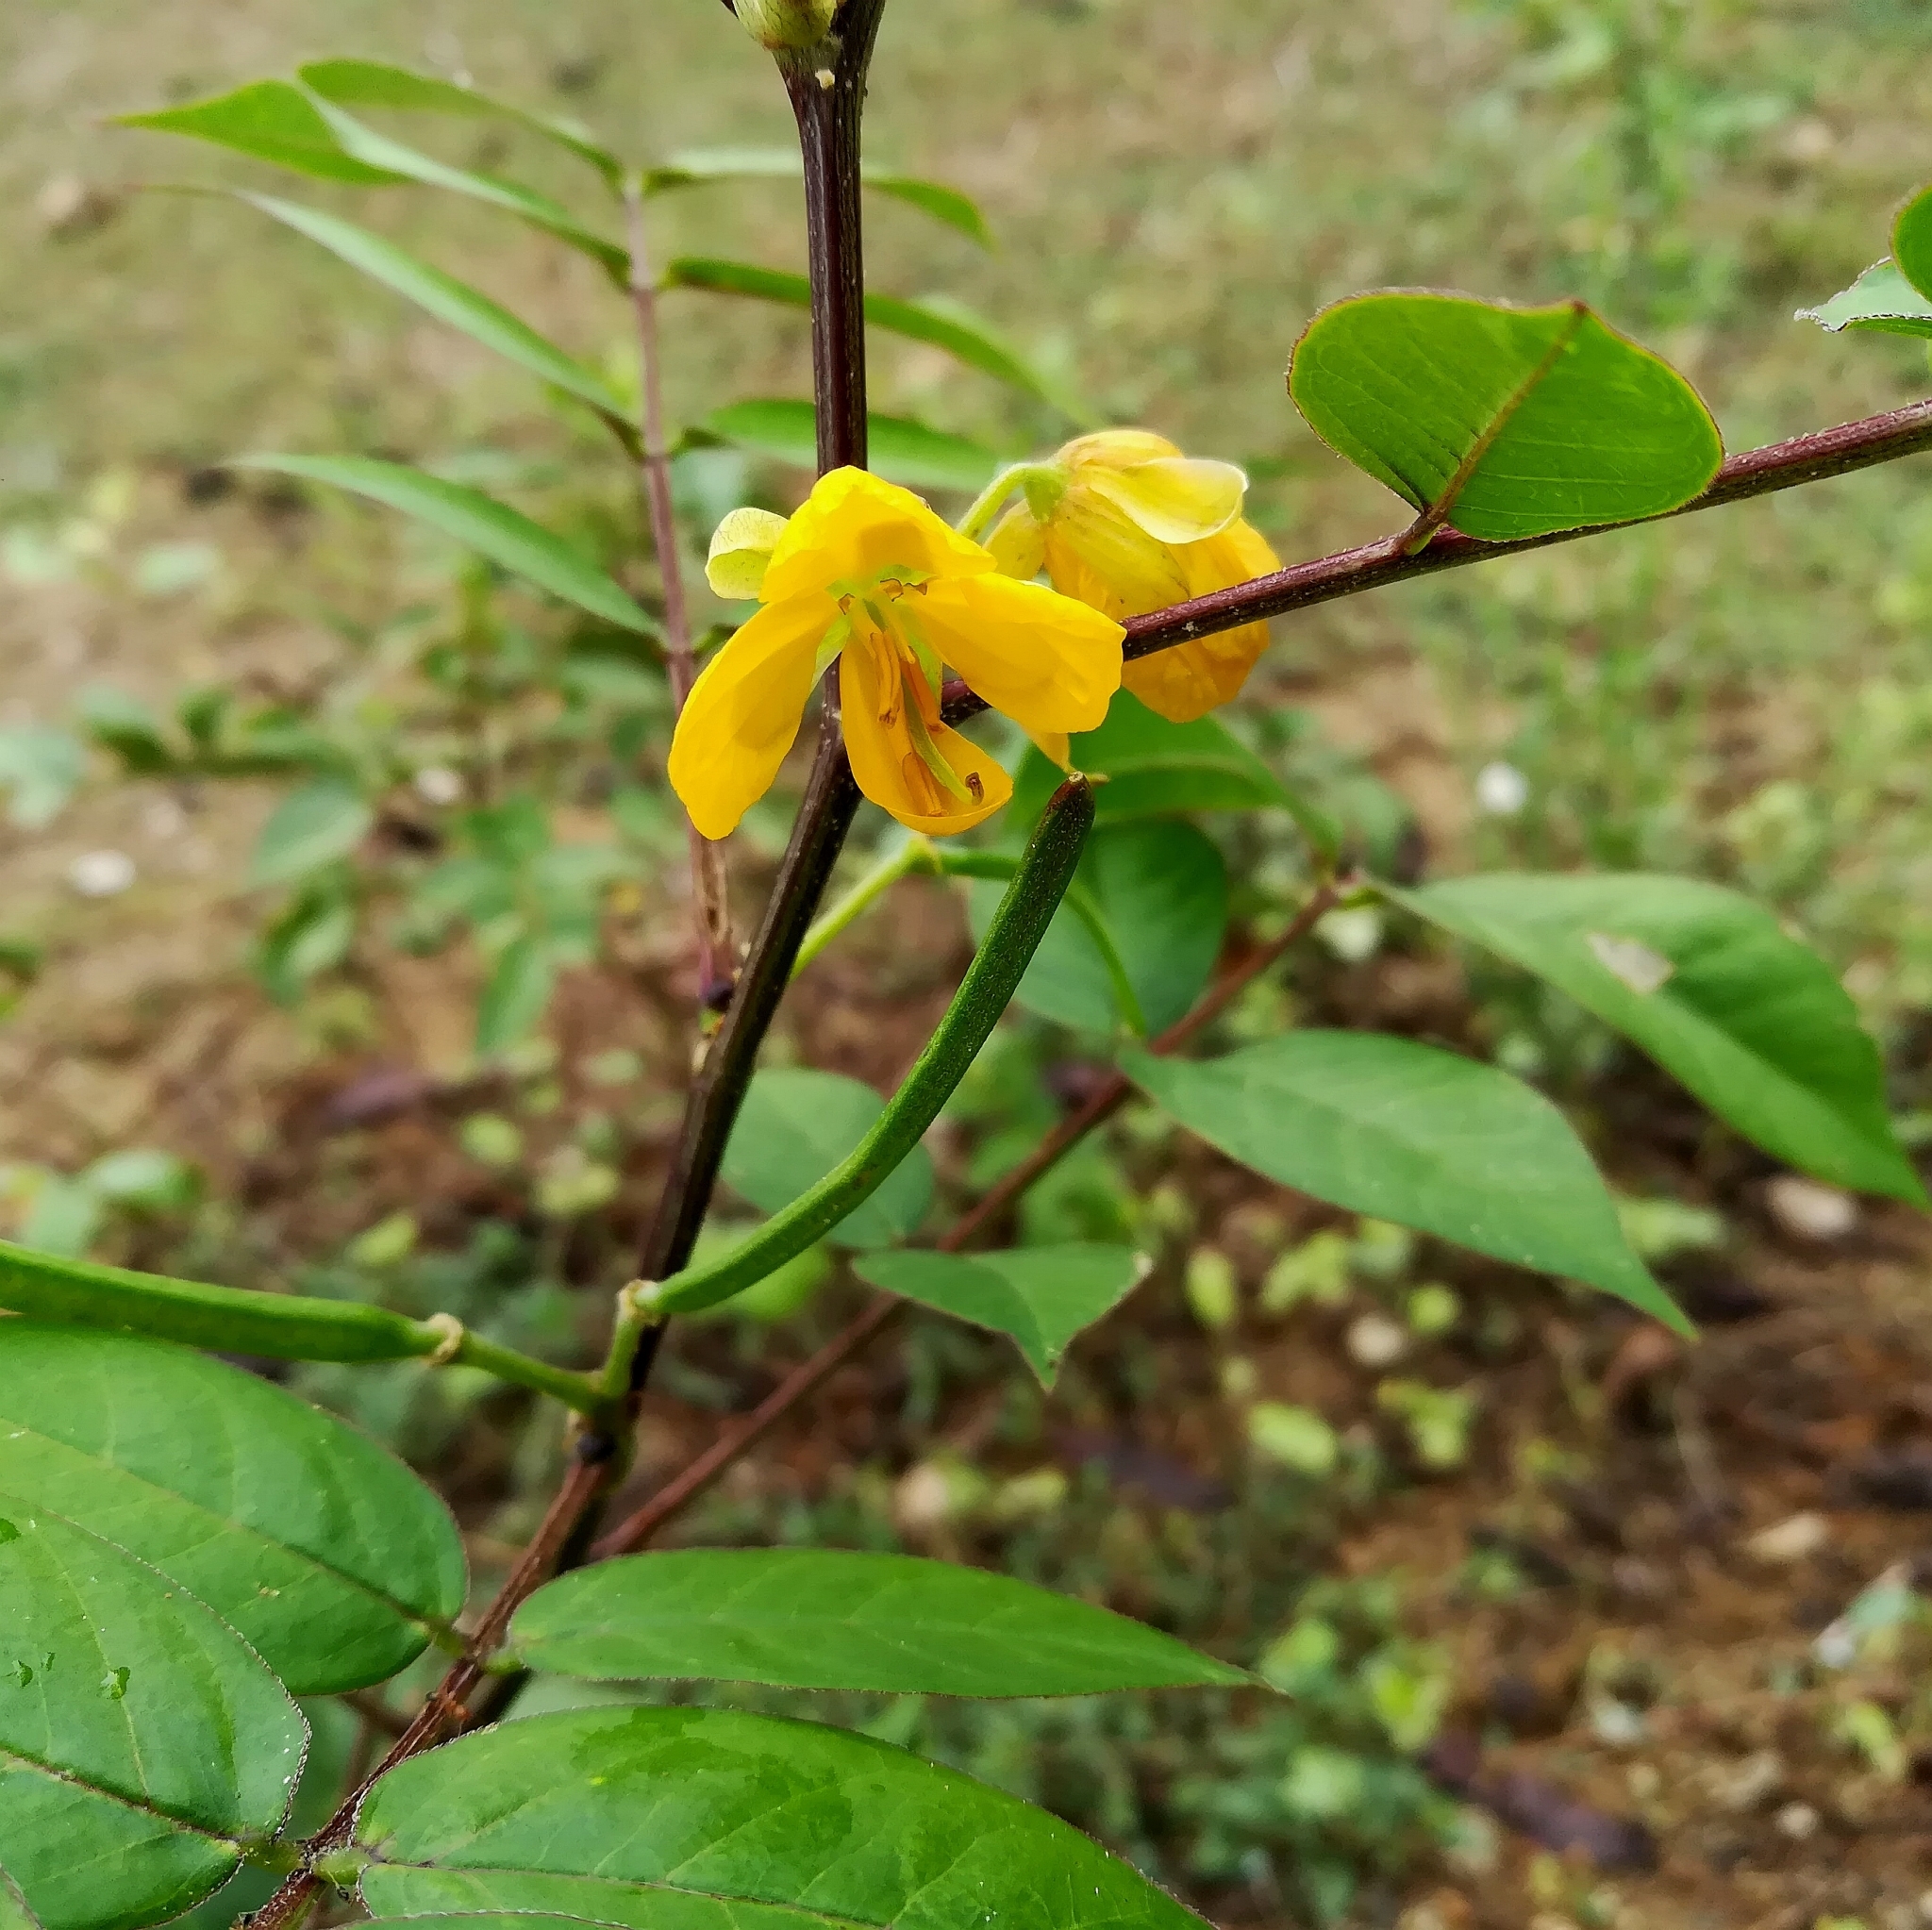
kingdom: Plantae
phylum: Tracheophyta
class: Magnoliopsida
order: Fabales
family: Fabaceae
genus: Senna
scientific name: Senna occidentalis
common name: Septicweed
